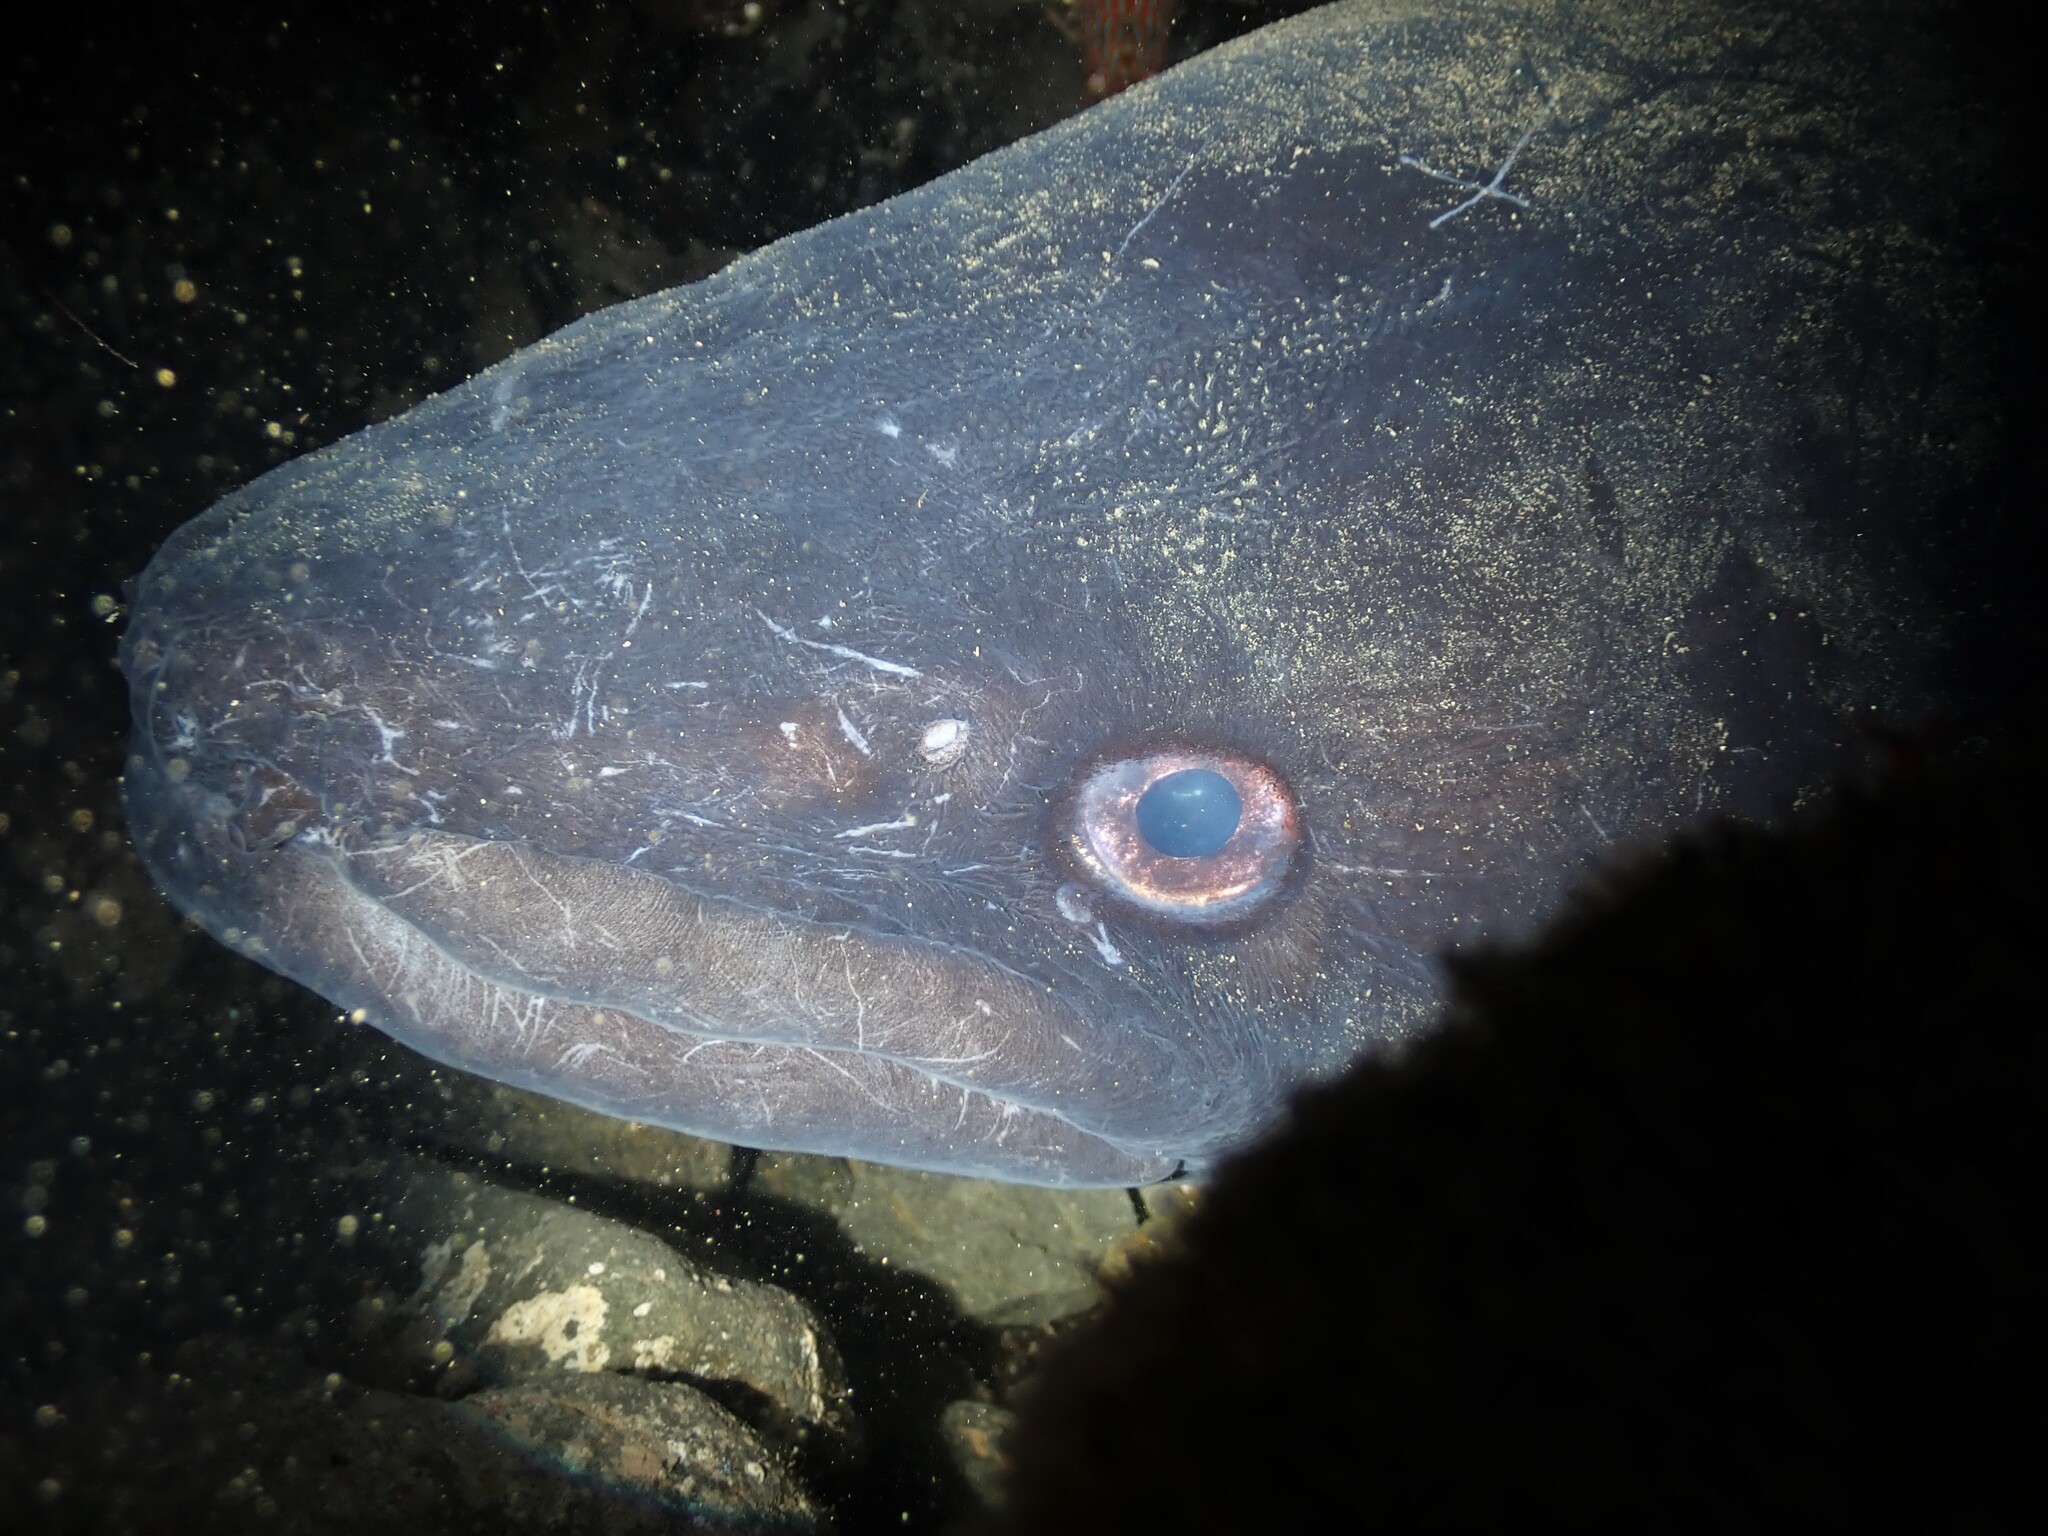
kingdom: Animalia
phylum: Chordata
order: Anguilliformes
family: Congridae
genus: Conger
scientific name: Conger verreauxi
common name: Conger eel
